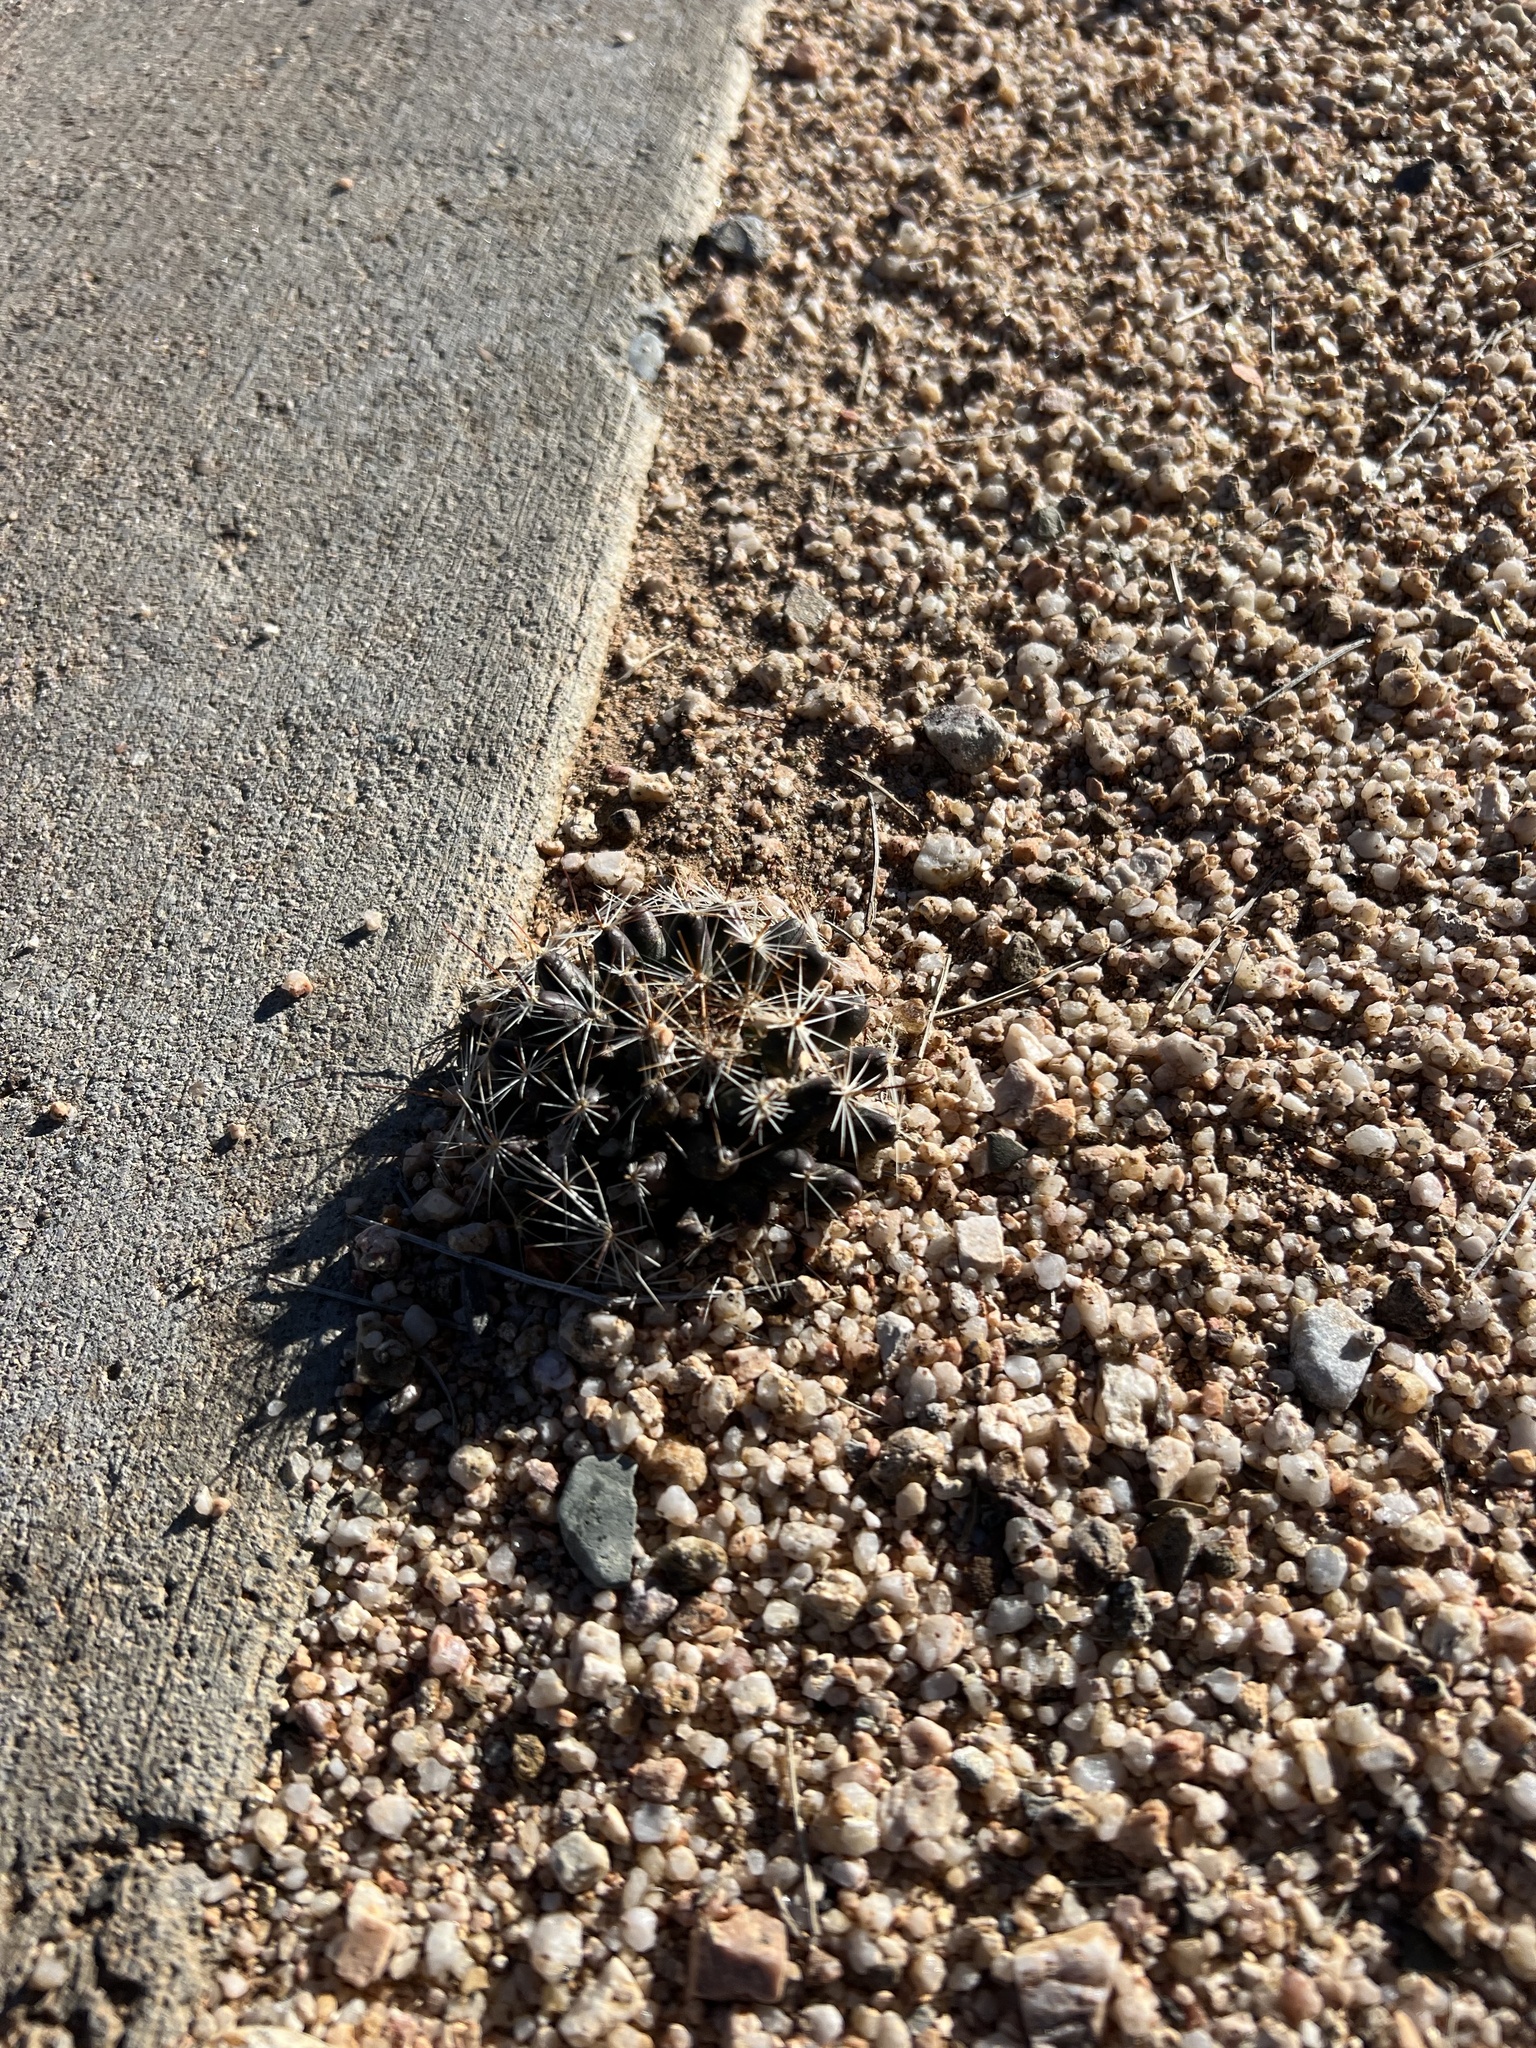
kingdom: Plantae
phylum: Tracheophyta
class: Magnoliopsida
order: Caryophyllales
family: Cactaceae
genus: Cochemiea
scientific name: Cochemiea wrightii
